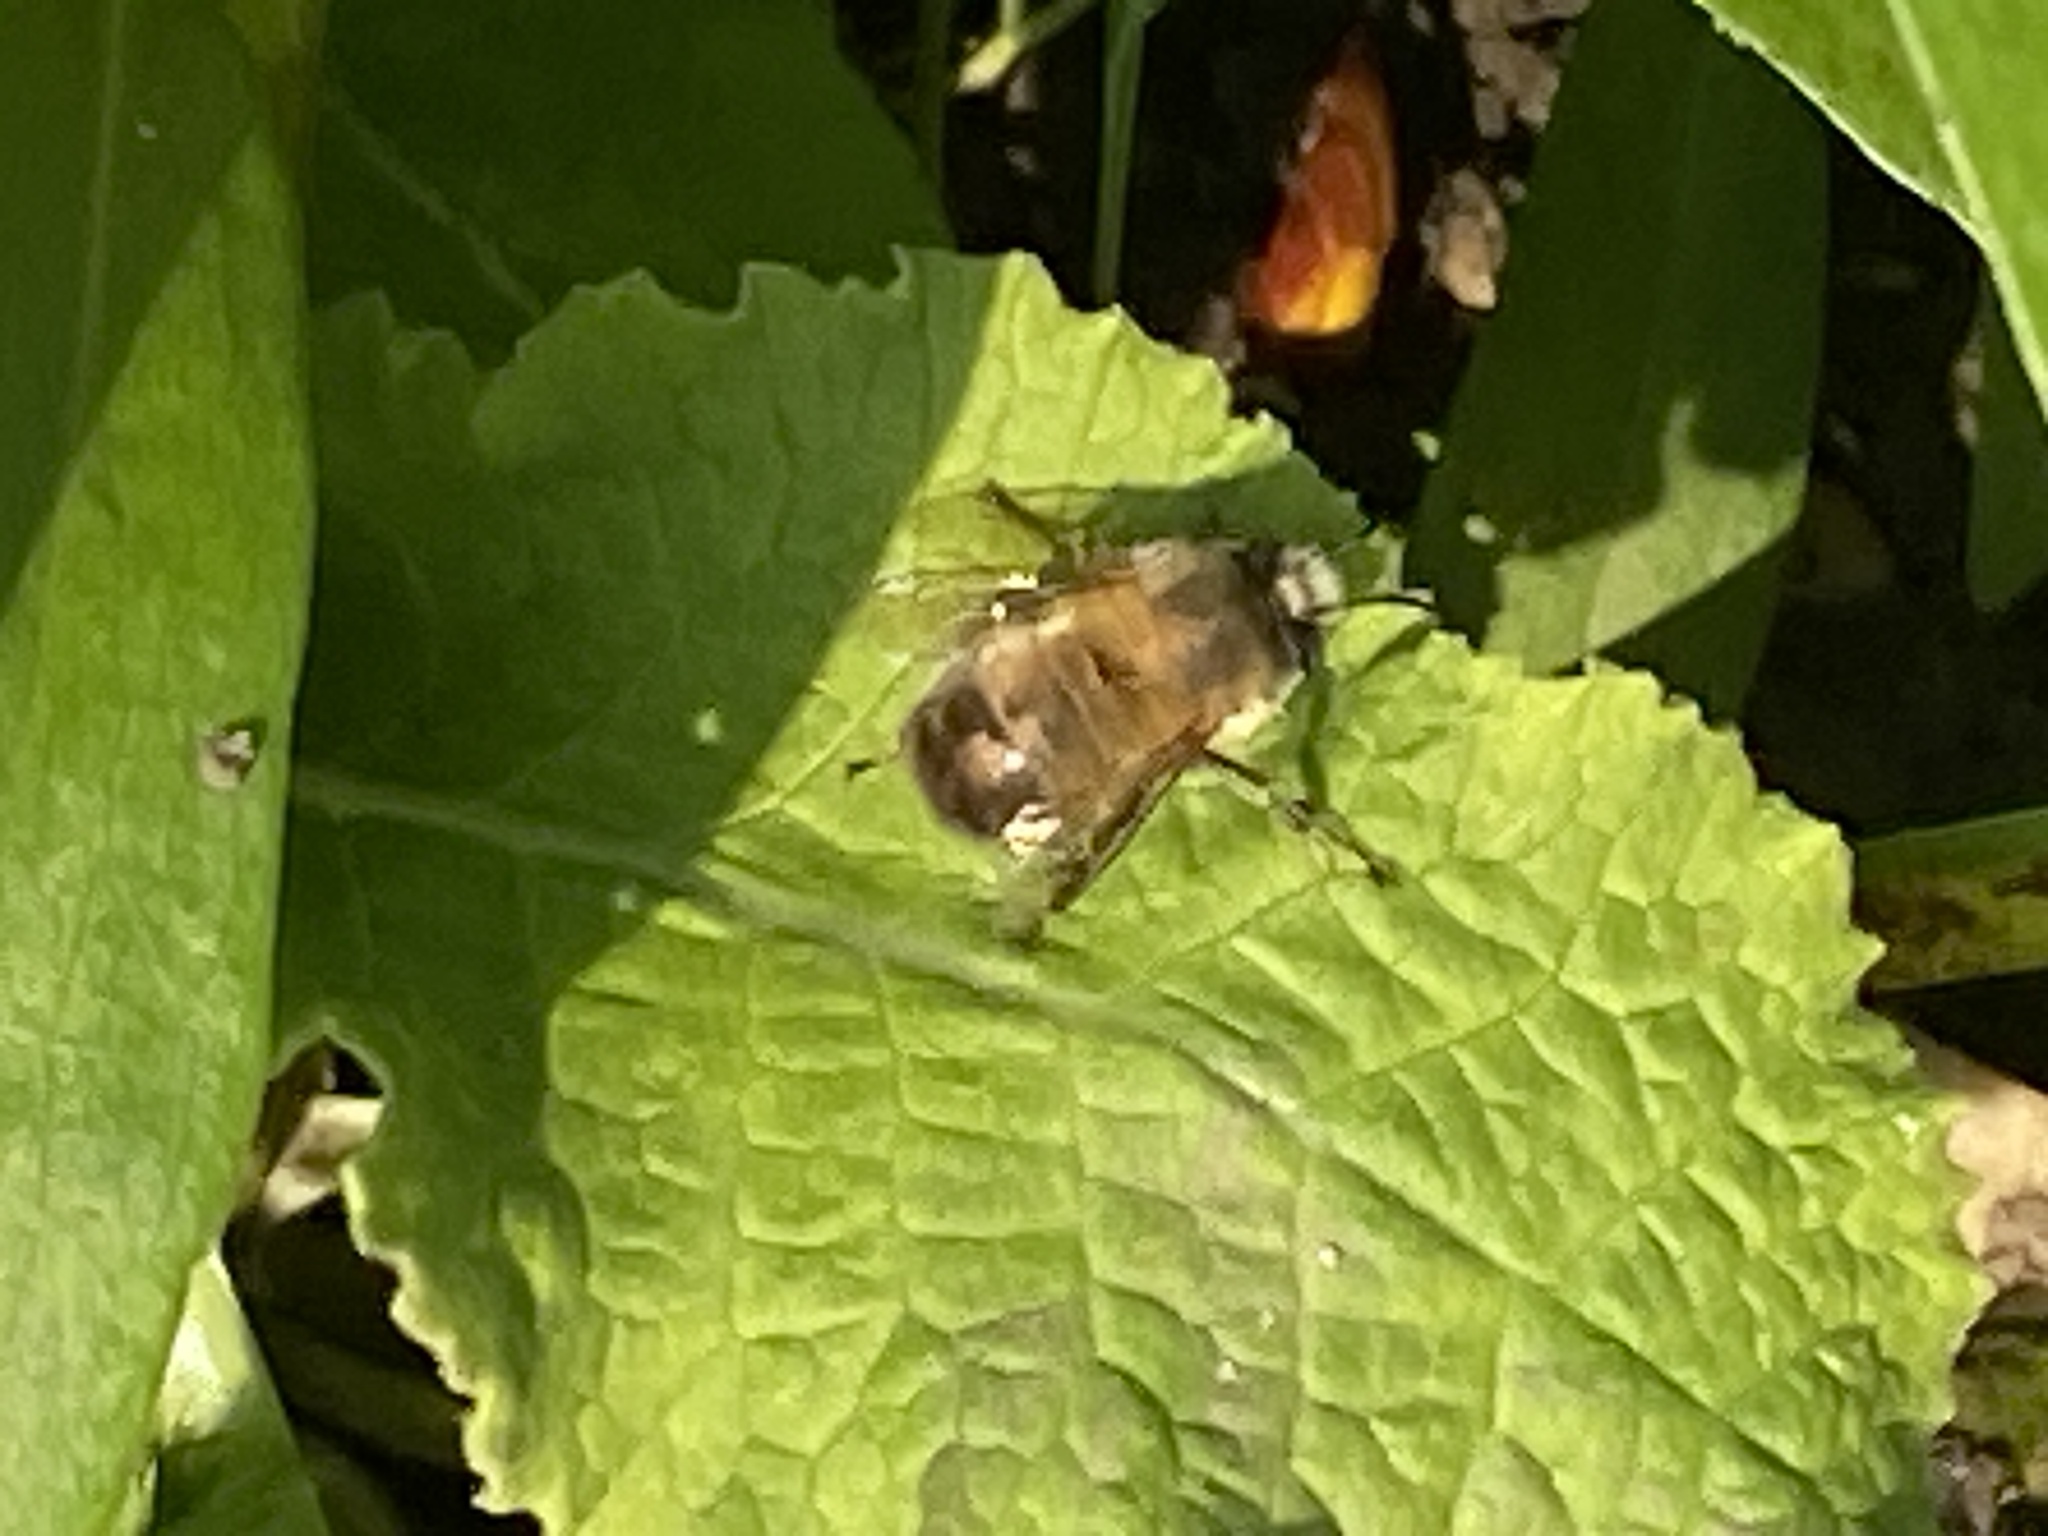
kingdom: Animalia
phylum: Arthropoda
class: Insecta
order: Hymenoptera
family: Apidae
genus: Anthophora
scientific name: Anthophora plumipes
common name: Hairy-footed flower bee
